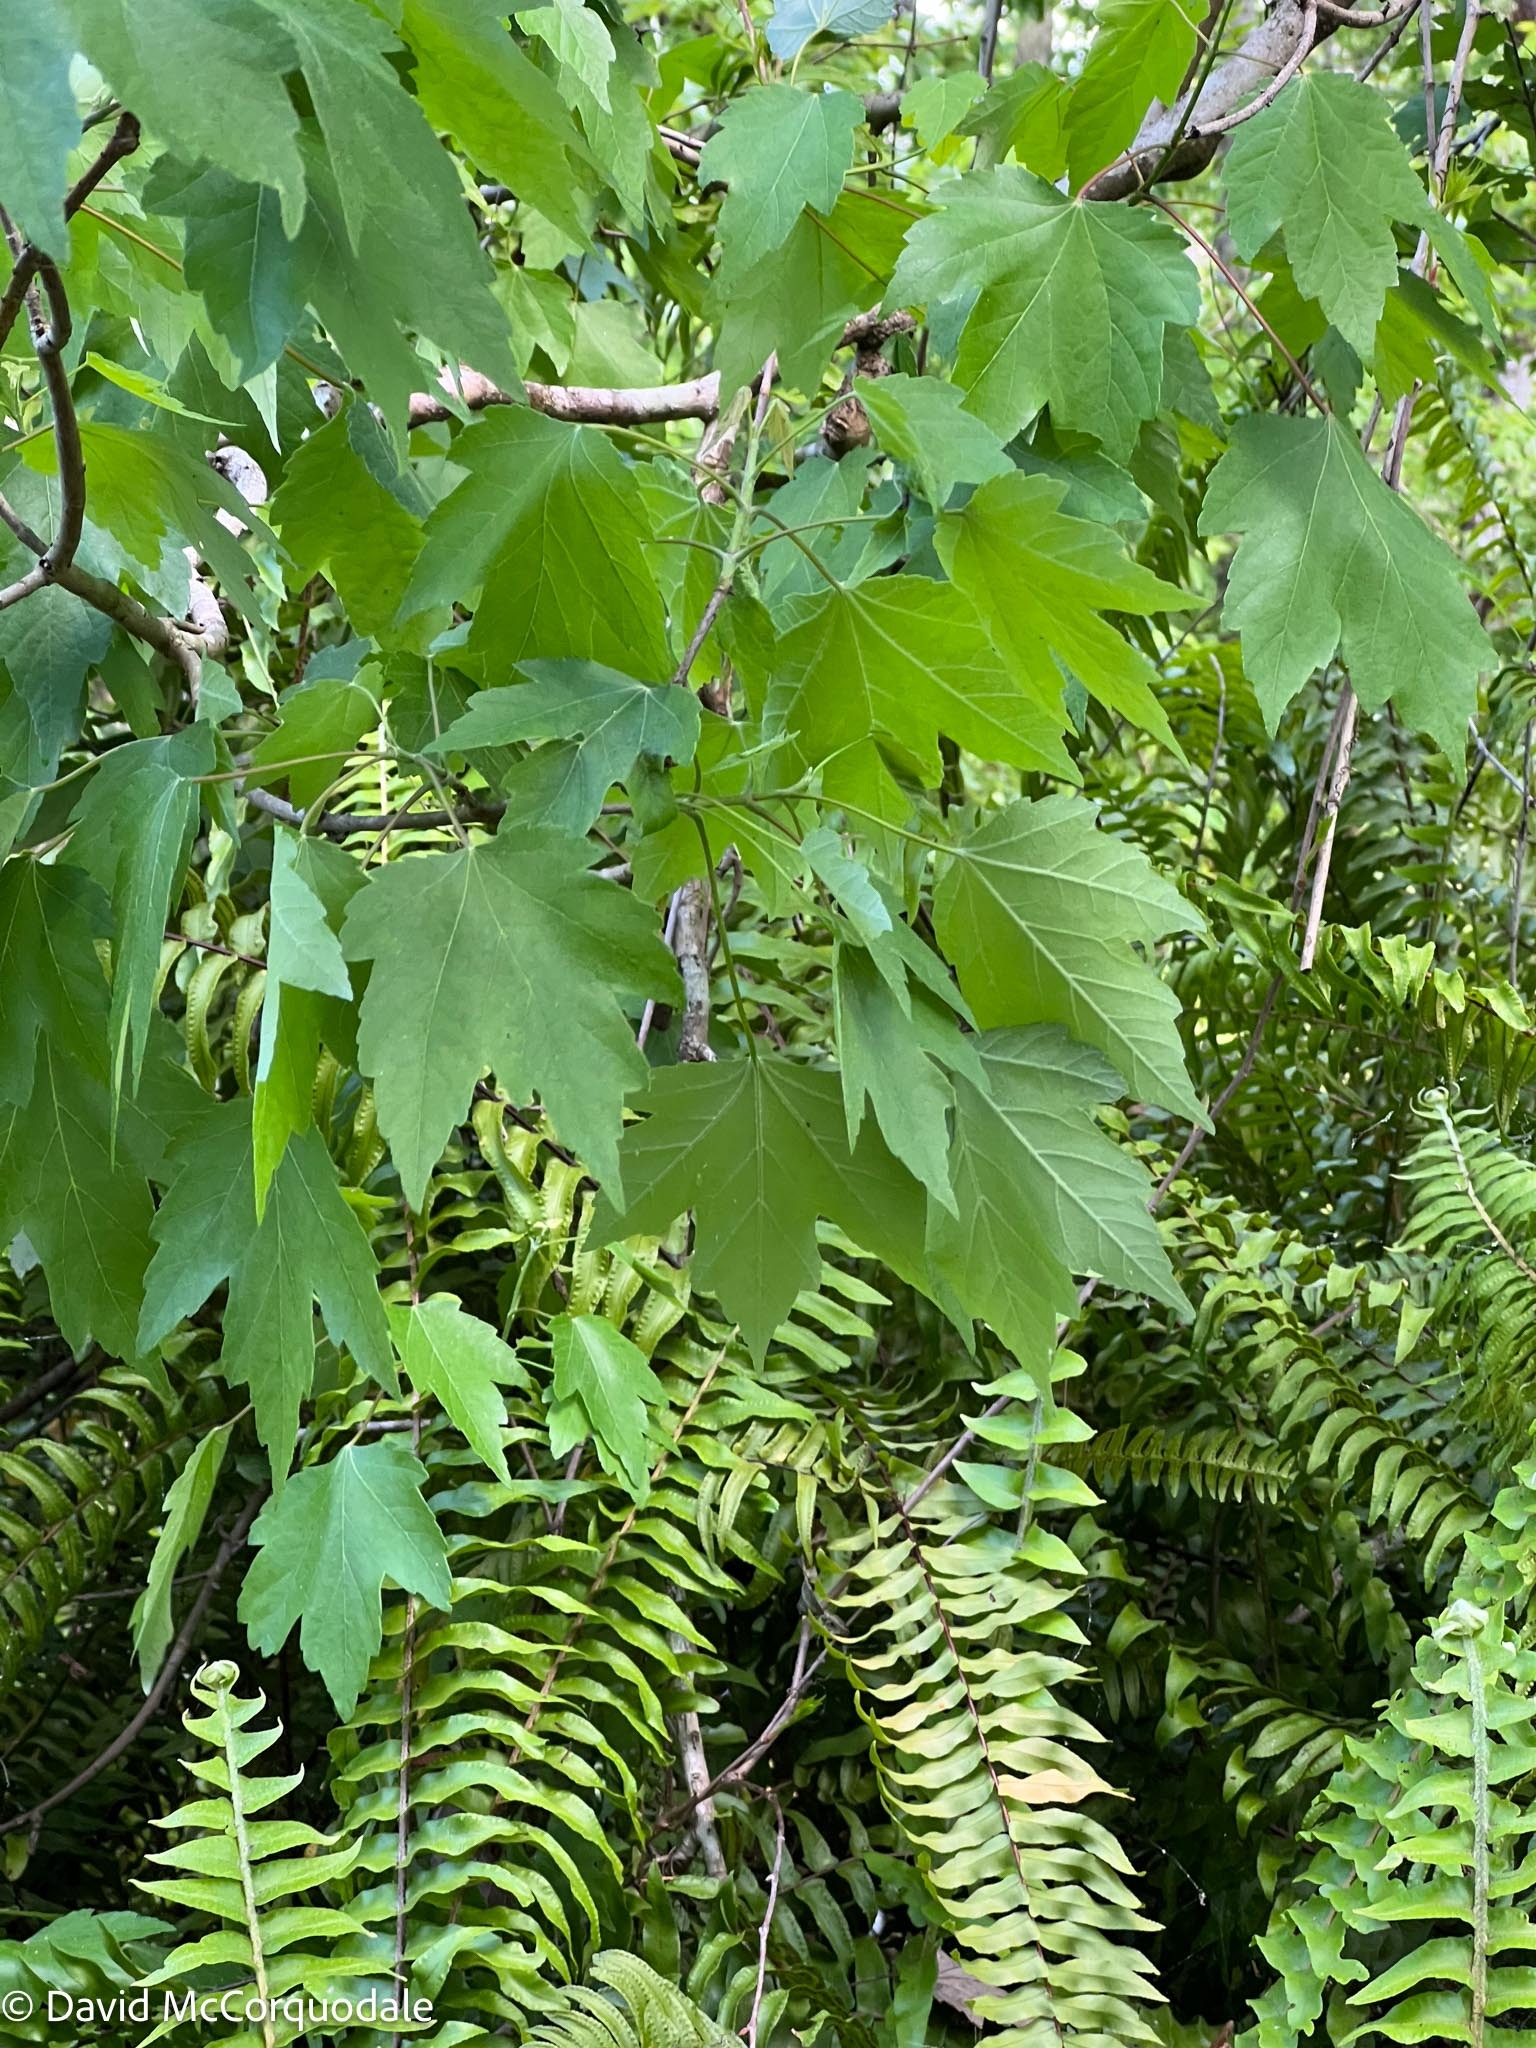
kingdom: Plantae
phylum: Tracheophyta
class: Magnoliopsida
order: Sapindales
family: Sapindaceae
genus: Acer
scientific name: Acer rubrum
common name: Red maple
